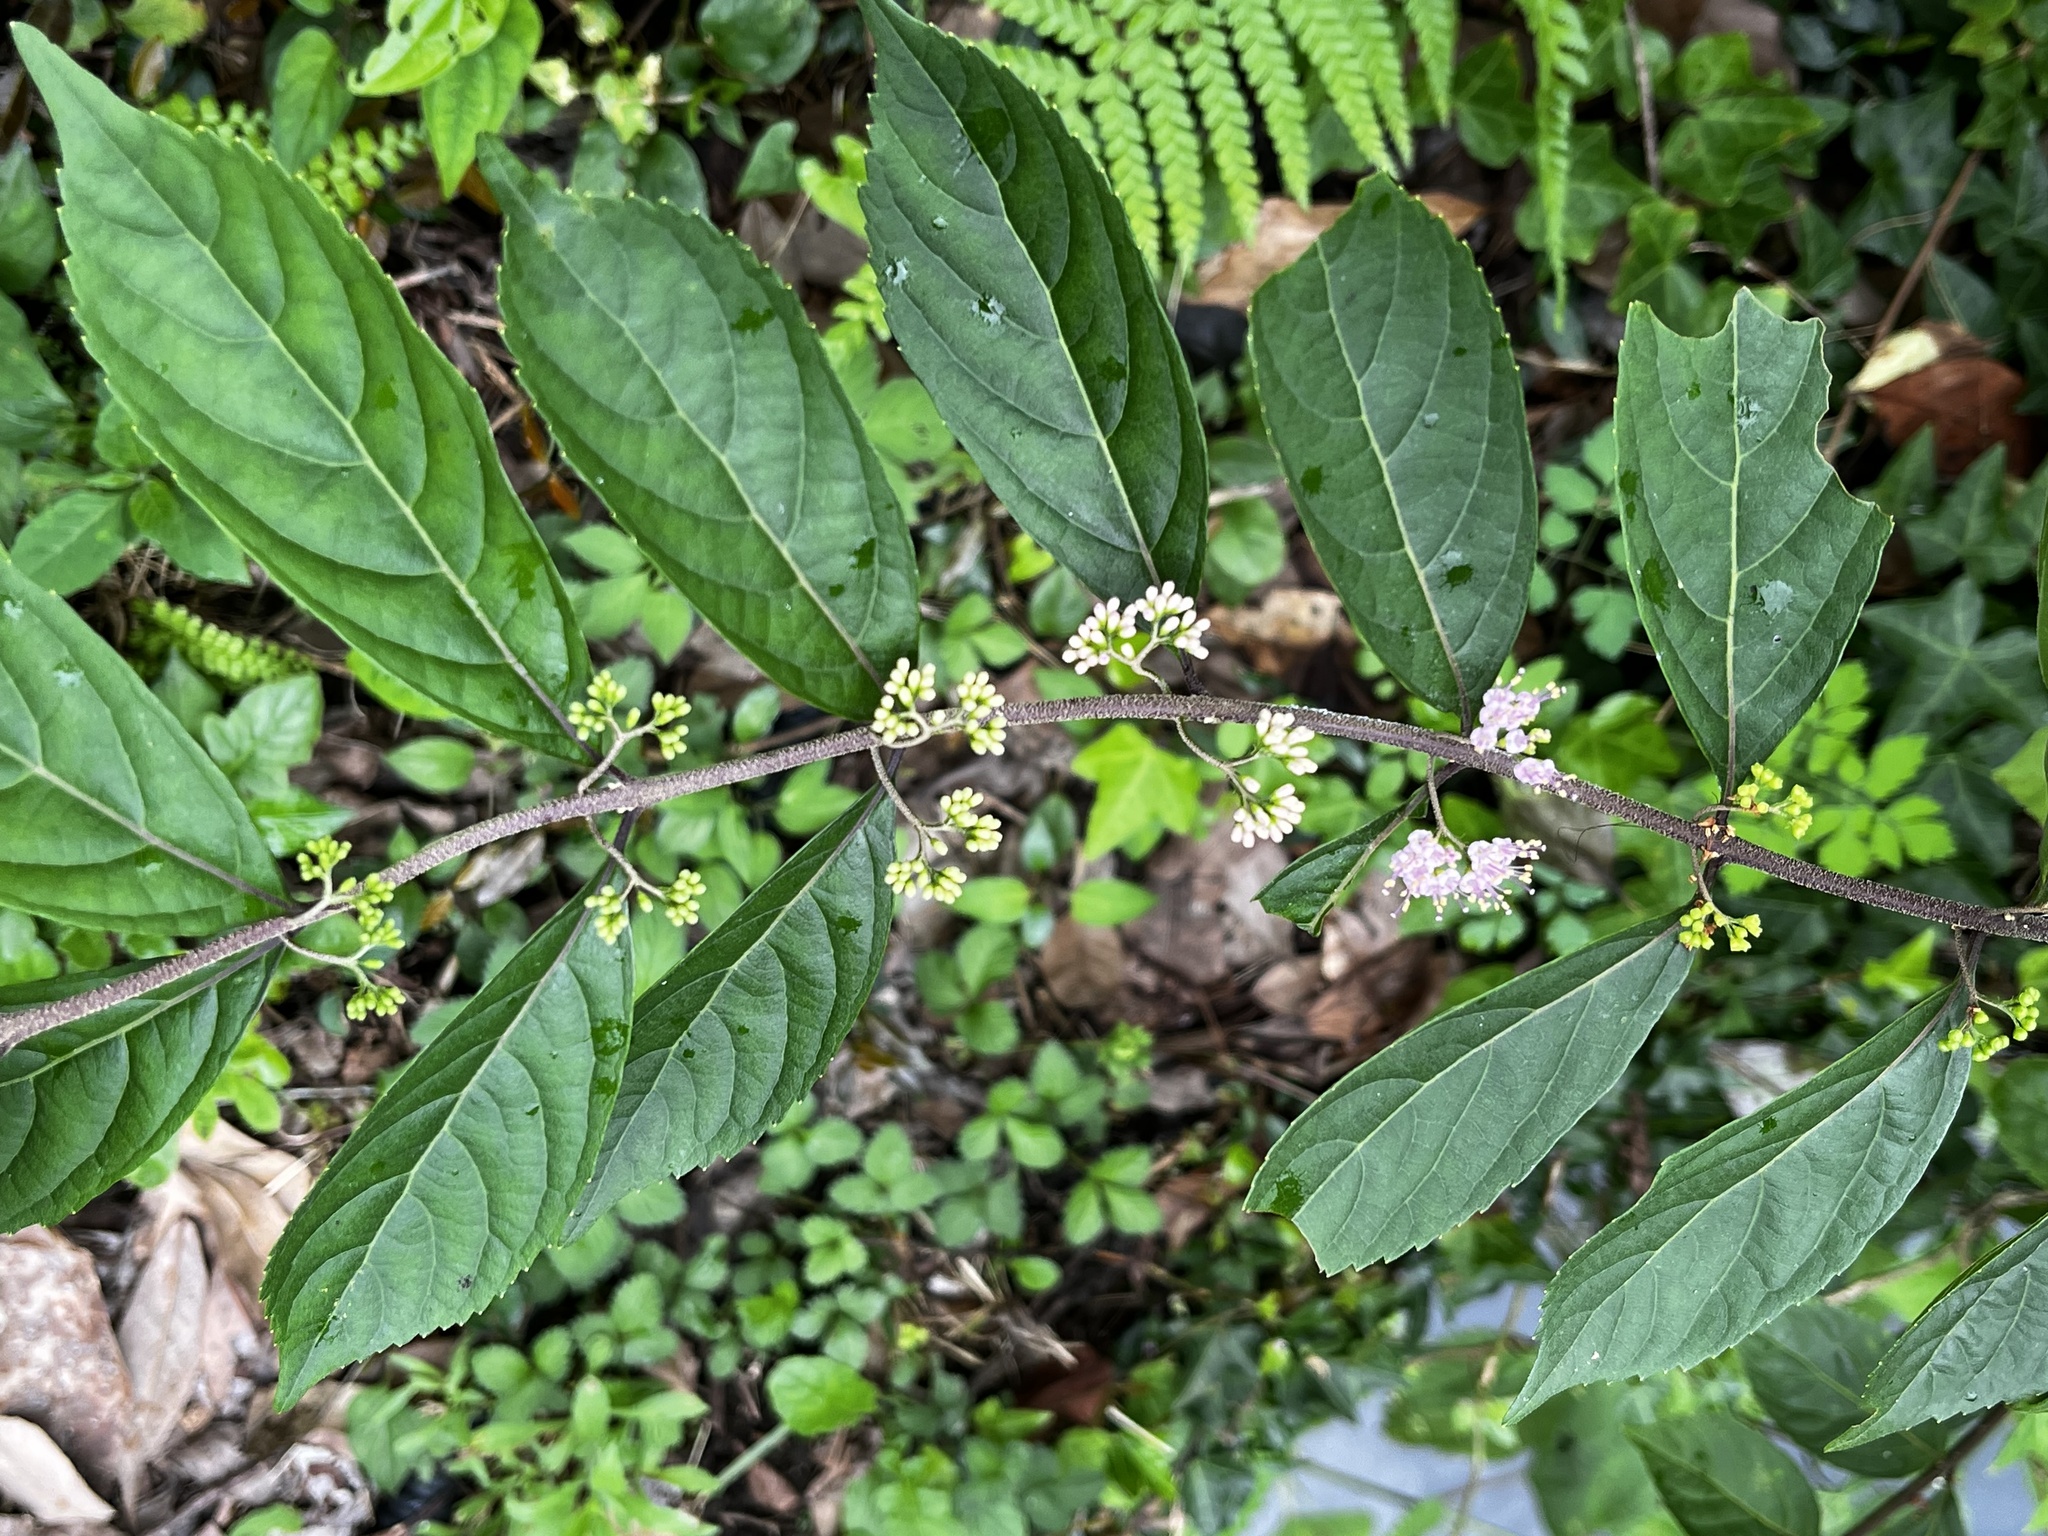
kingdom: Plantae
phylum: Tracheophyta
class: Magnoliopsida
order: Lamiales
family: Lamiaceae
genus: Callicarpa
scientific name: Callicarpa dichotoma
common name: Purple beauty-berry
